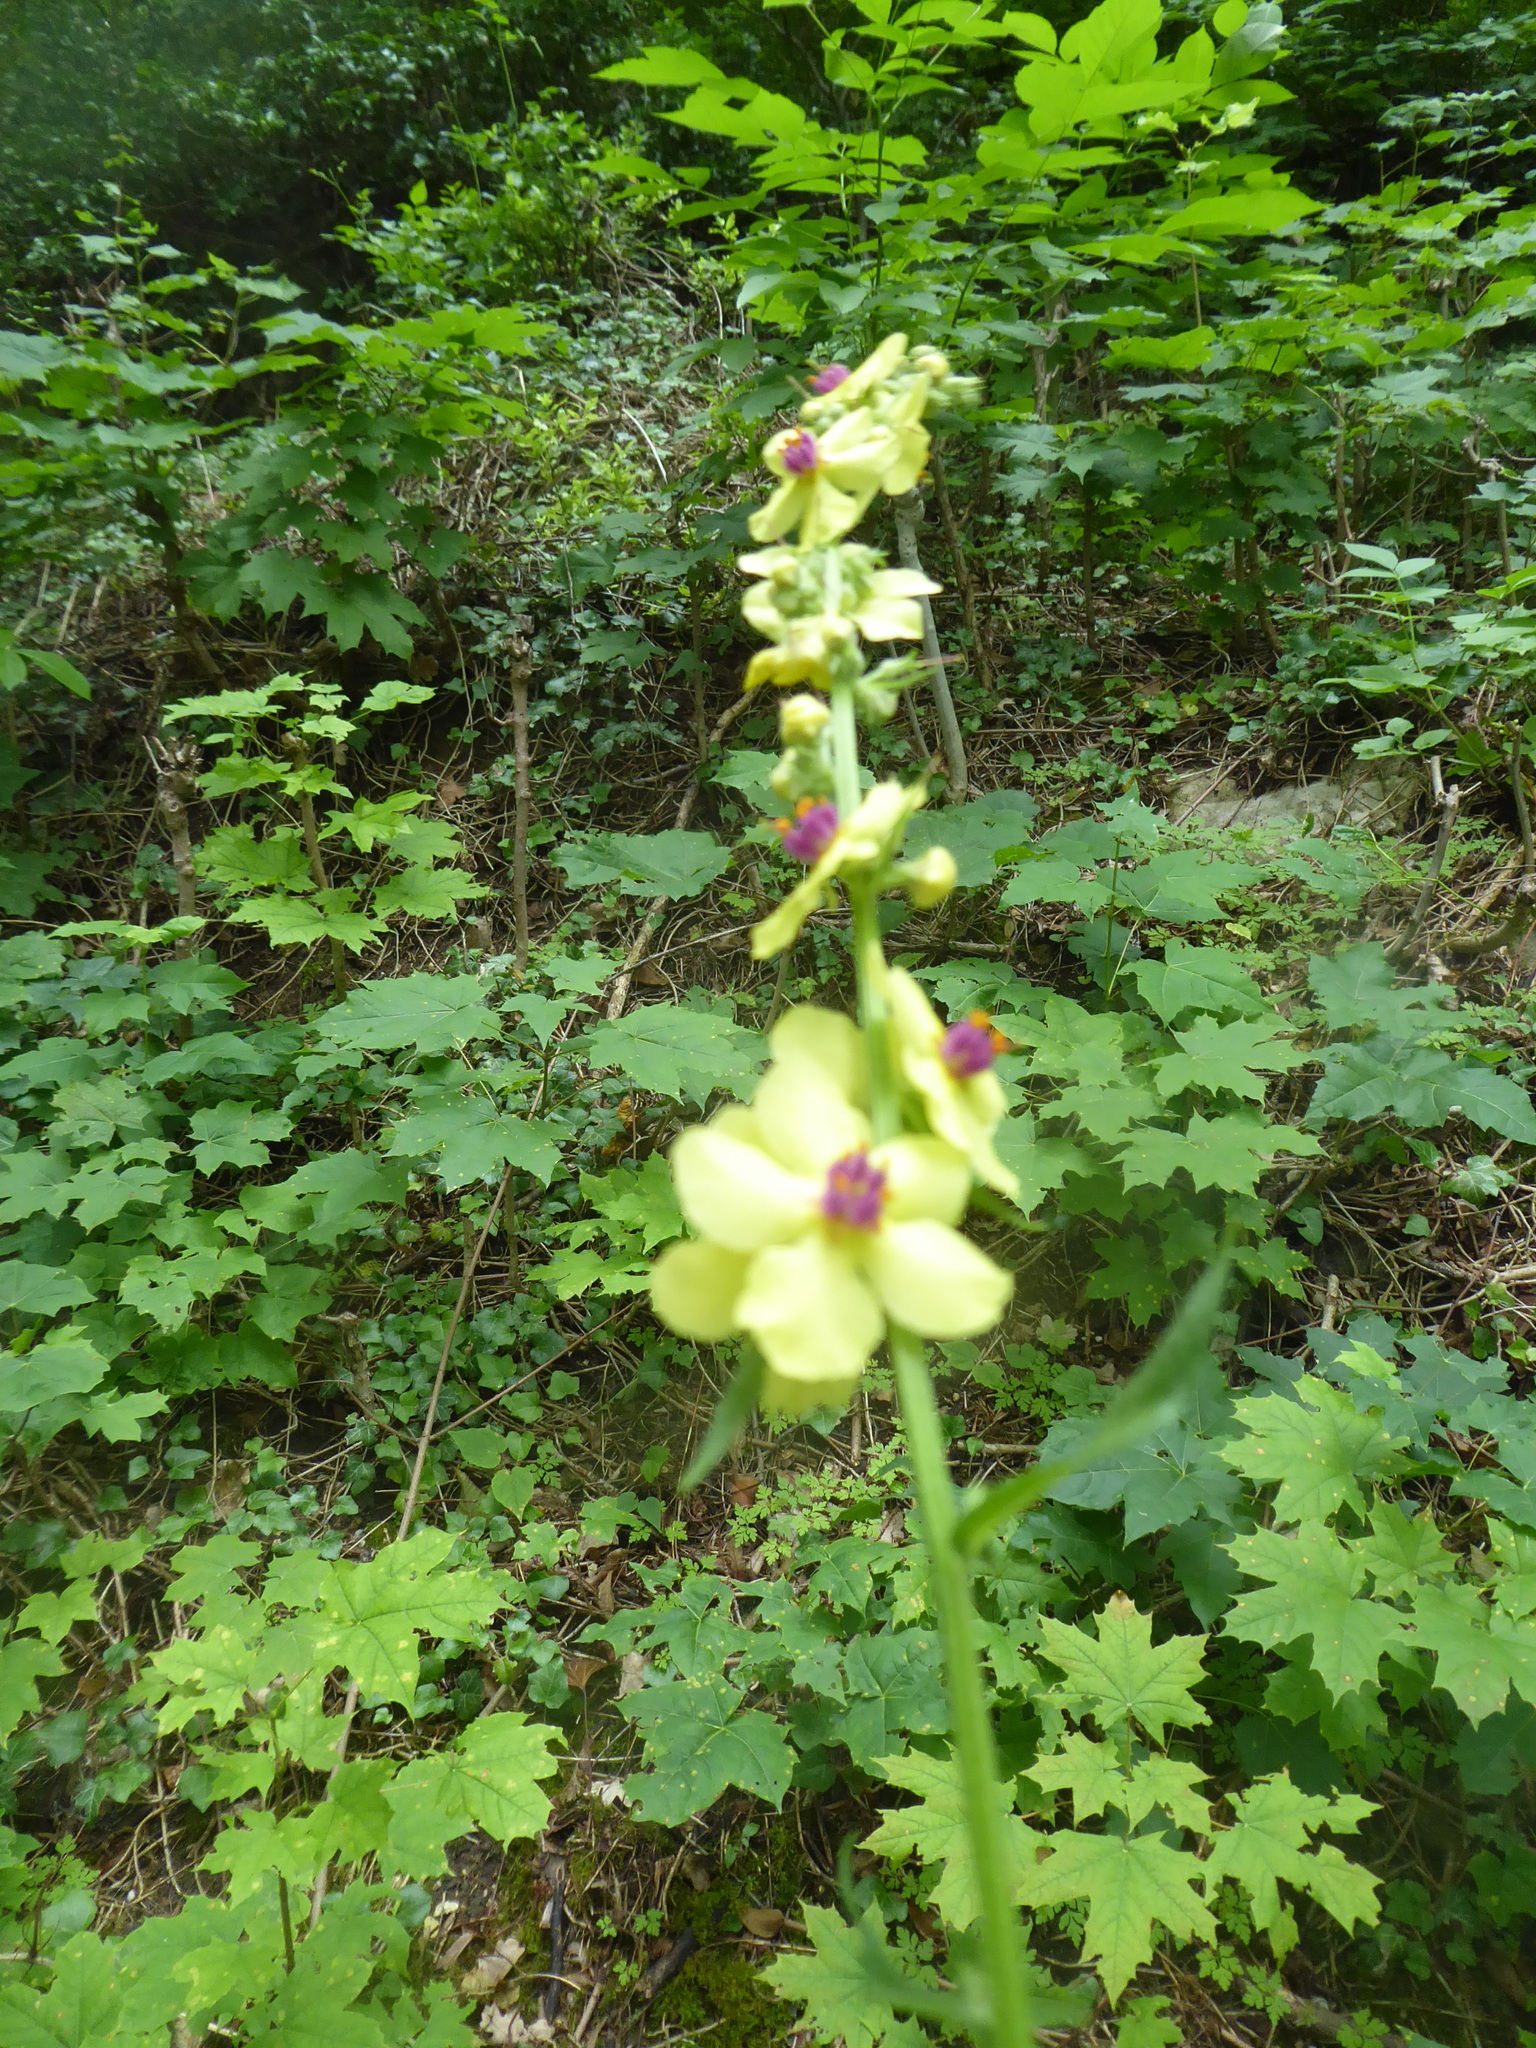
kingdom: Plantae
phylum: Tracheophyta
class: Magnoliopsida
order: Lamiales
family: Scrophulariaceae
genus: Verbascum
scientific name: Verbascum nigrum
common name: Dark mullein
